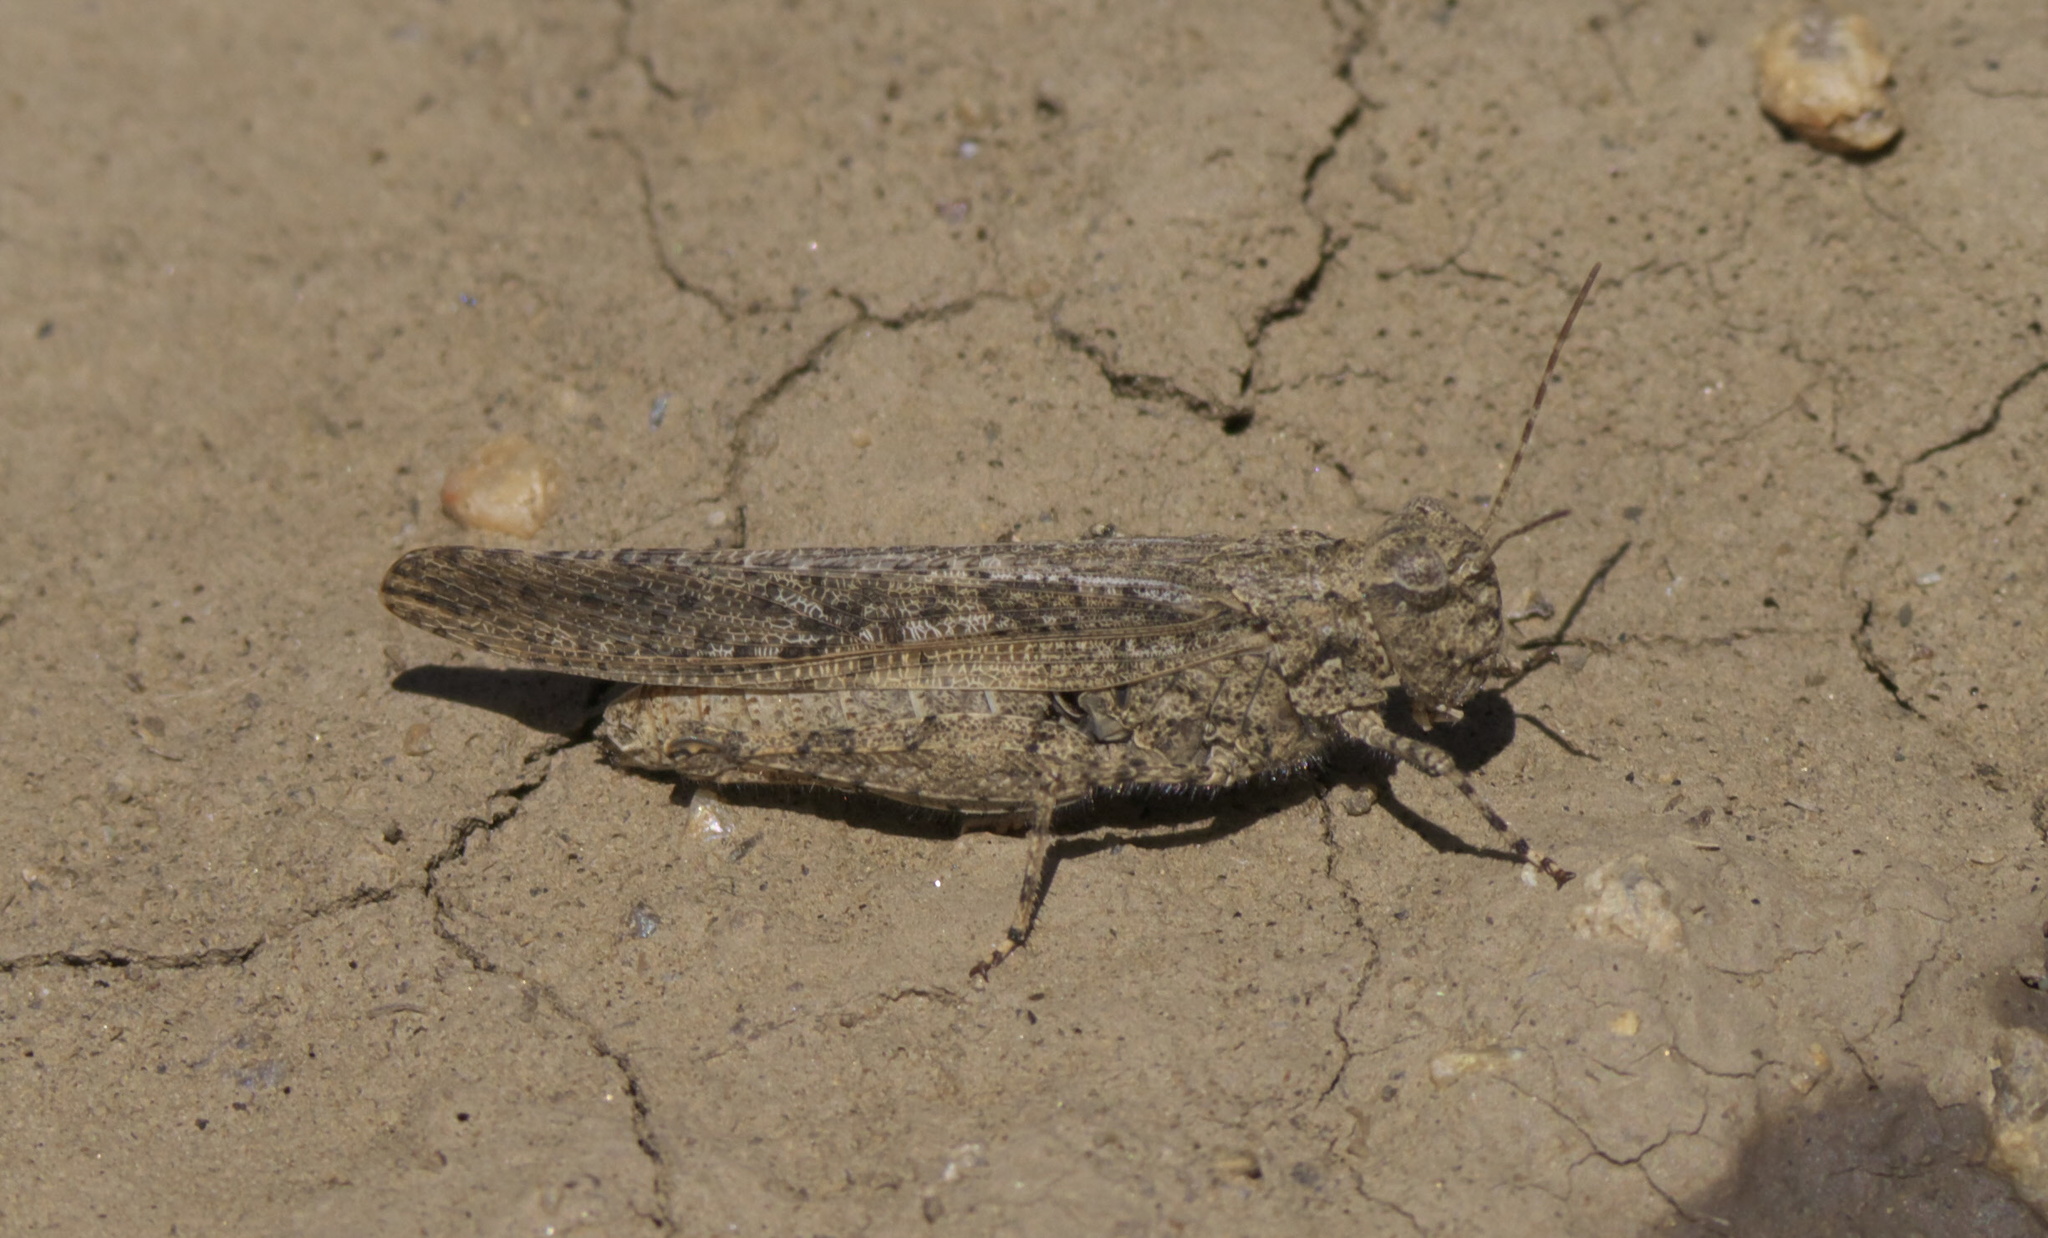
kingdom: Animalia
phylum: Arthropoda
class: Insecta
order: Orthoptera
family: Acrididae
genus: Trimerotropis
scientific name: Trimerotropis gracilis
